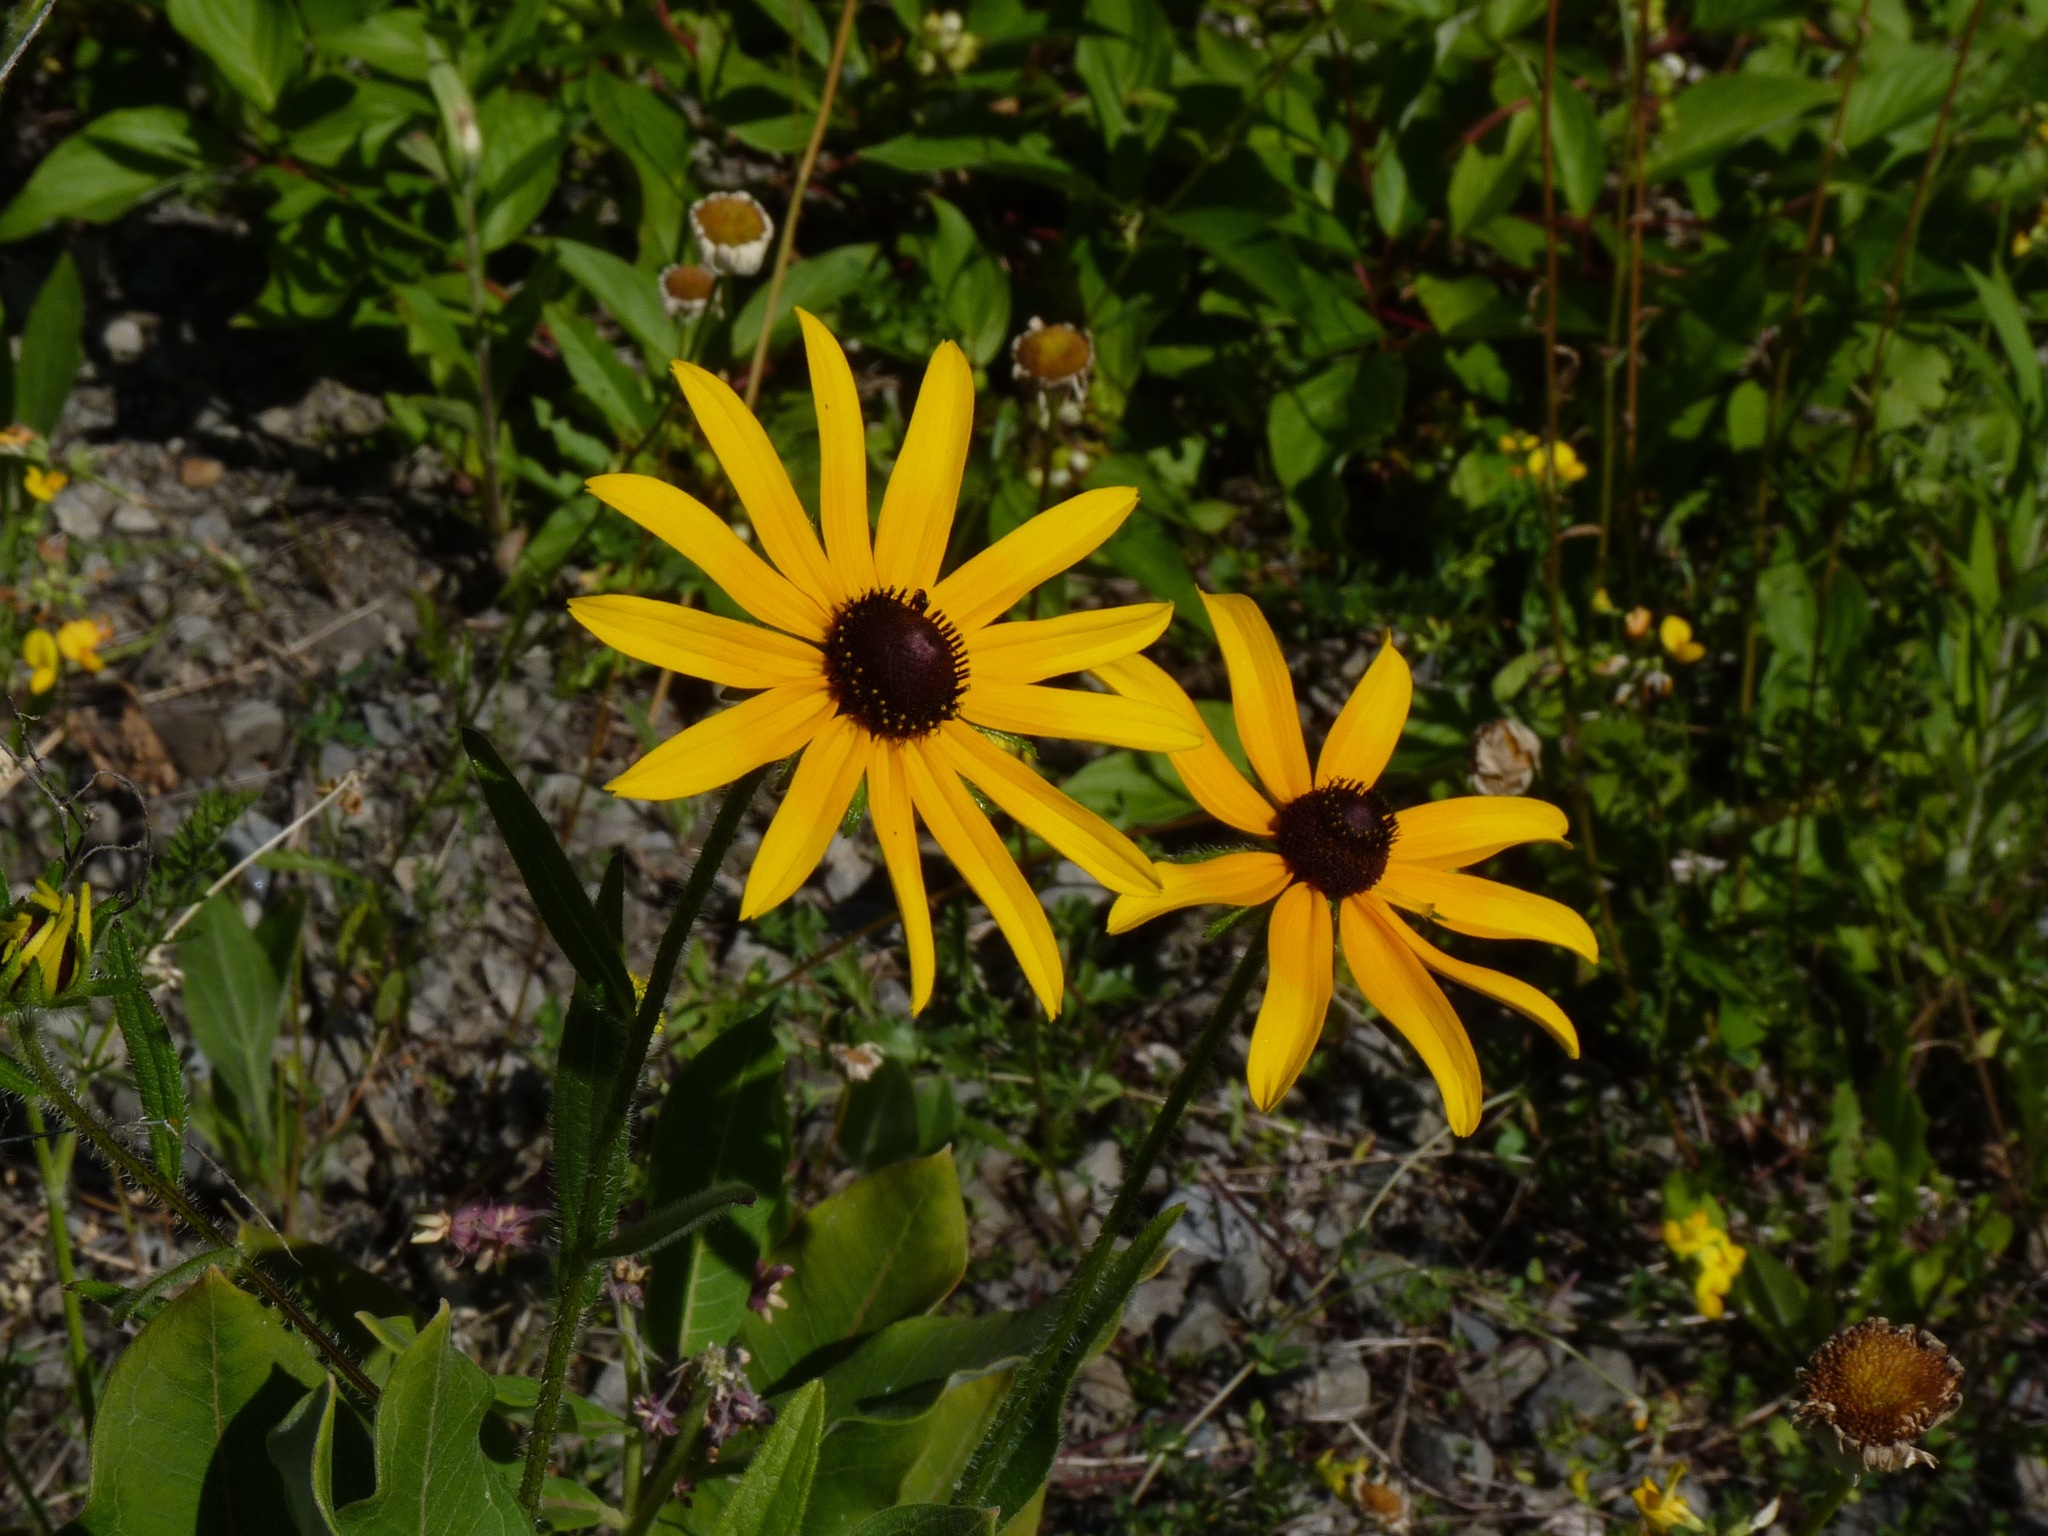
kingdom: Plantae
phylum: Tracheophyta
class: Magnoliopsida
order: Asterales
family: Asteraceae
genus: Rudbeckia
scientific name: Rudbeckia hirta
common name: Black-eyed-susan
